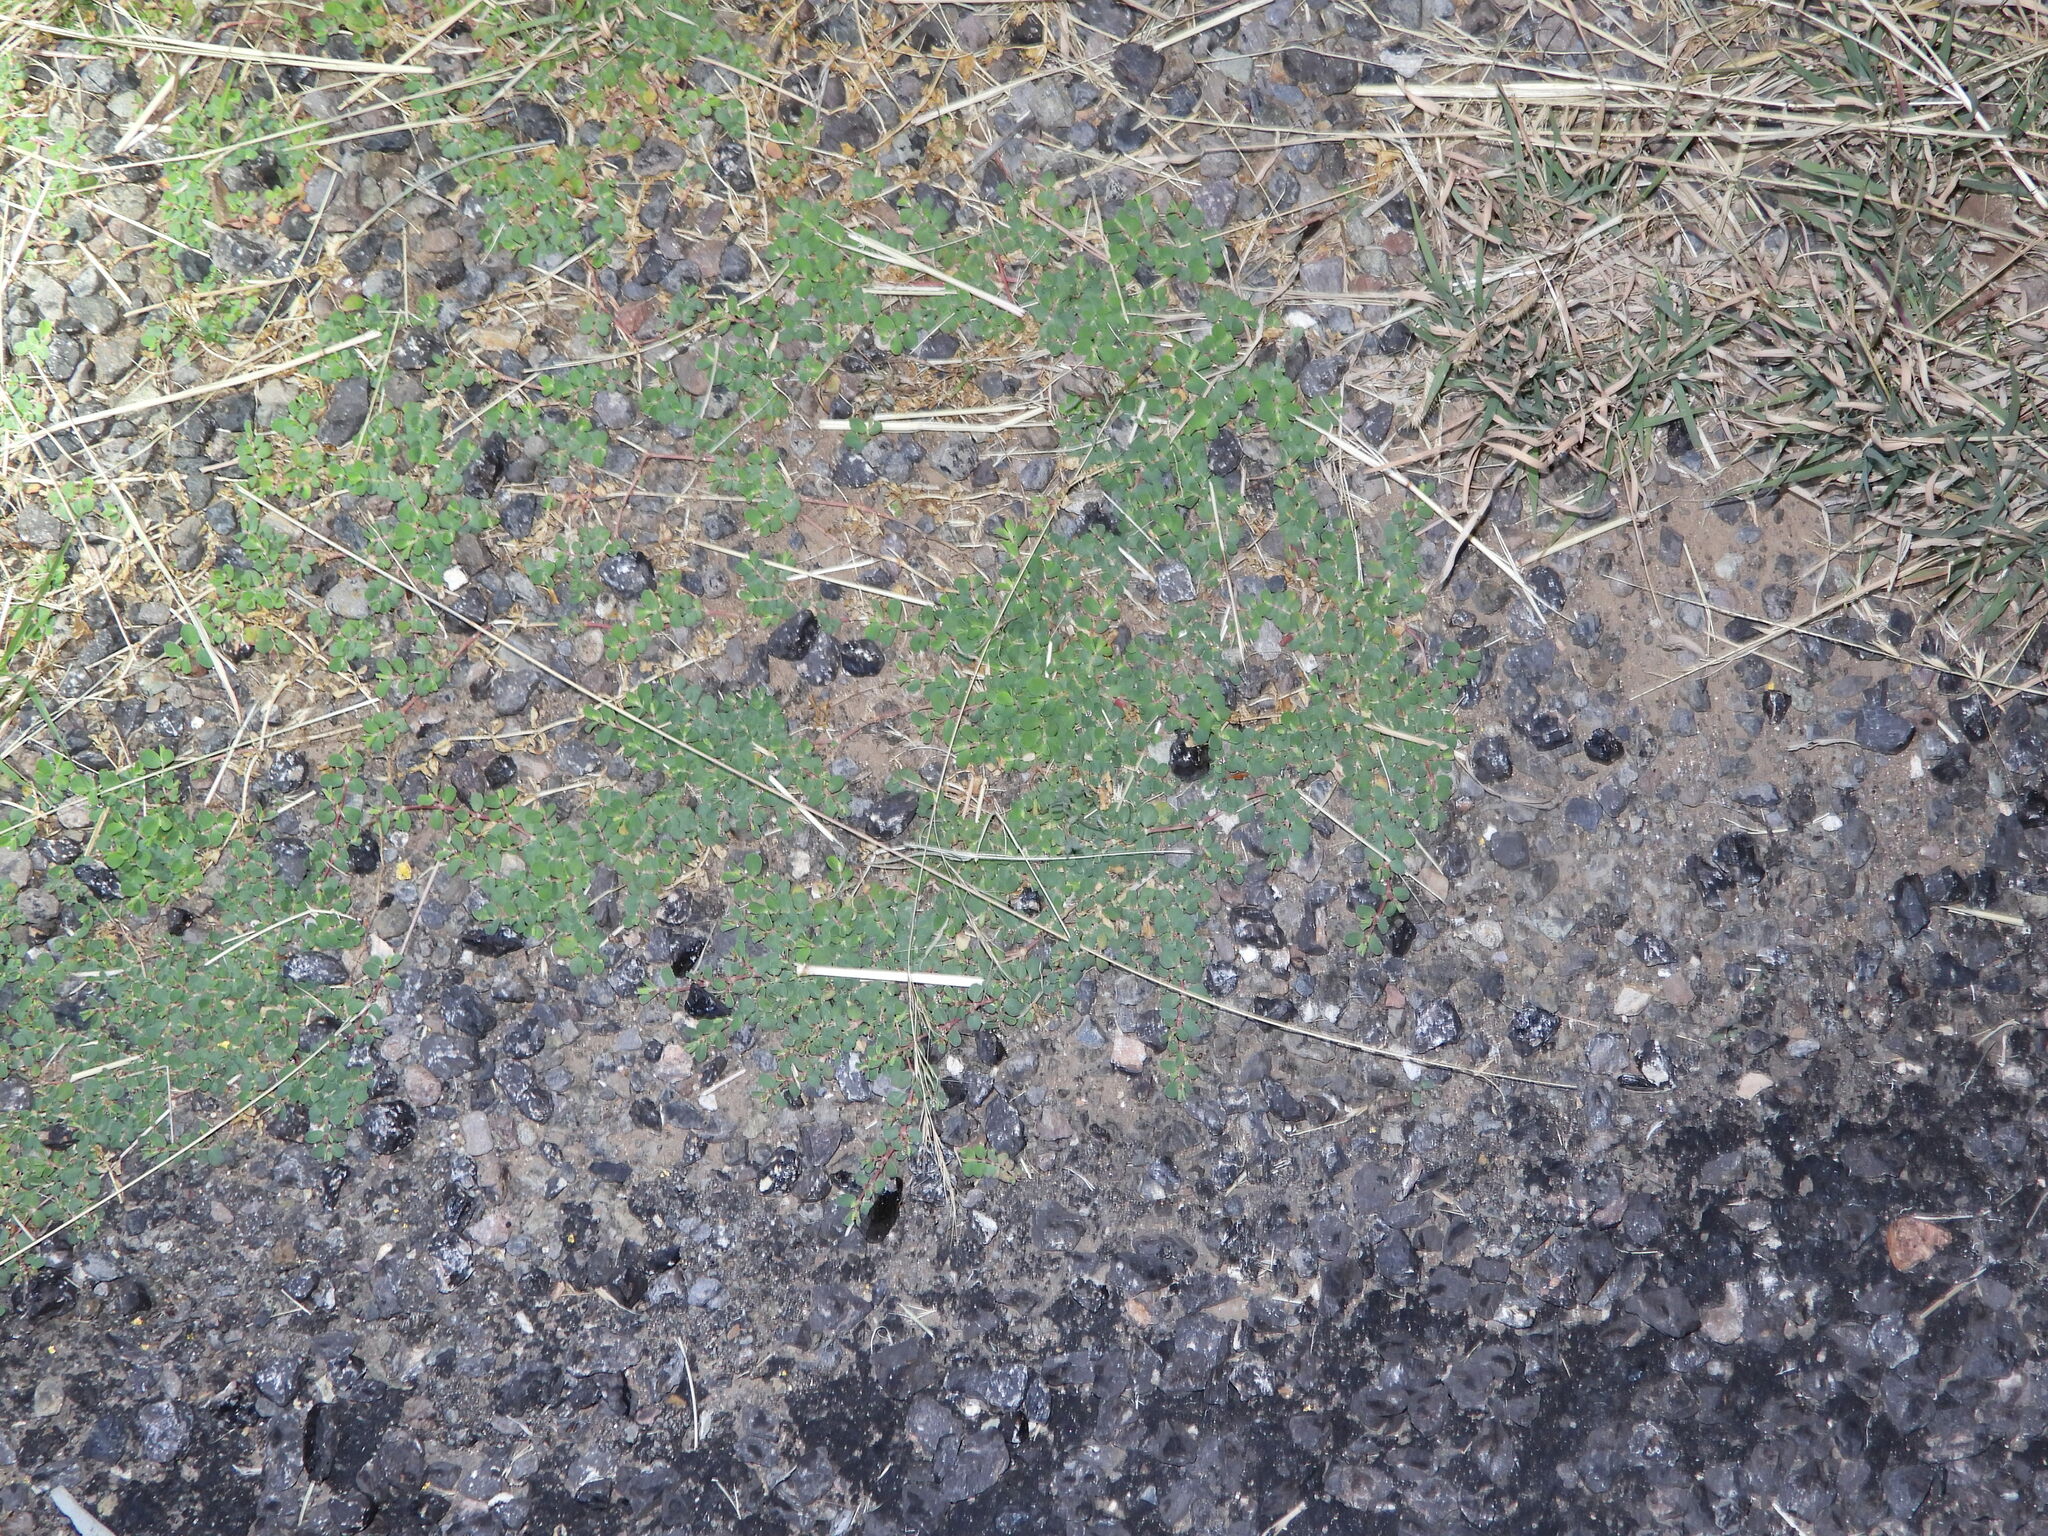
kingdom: Plantae
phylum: Tracheophyta
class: Magnoliopsida
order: Malpighiales
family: Euphorbiaceae
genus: Euphorbia
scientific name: Euphorbia albomarginata
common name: Whitemargin sandmat
